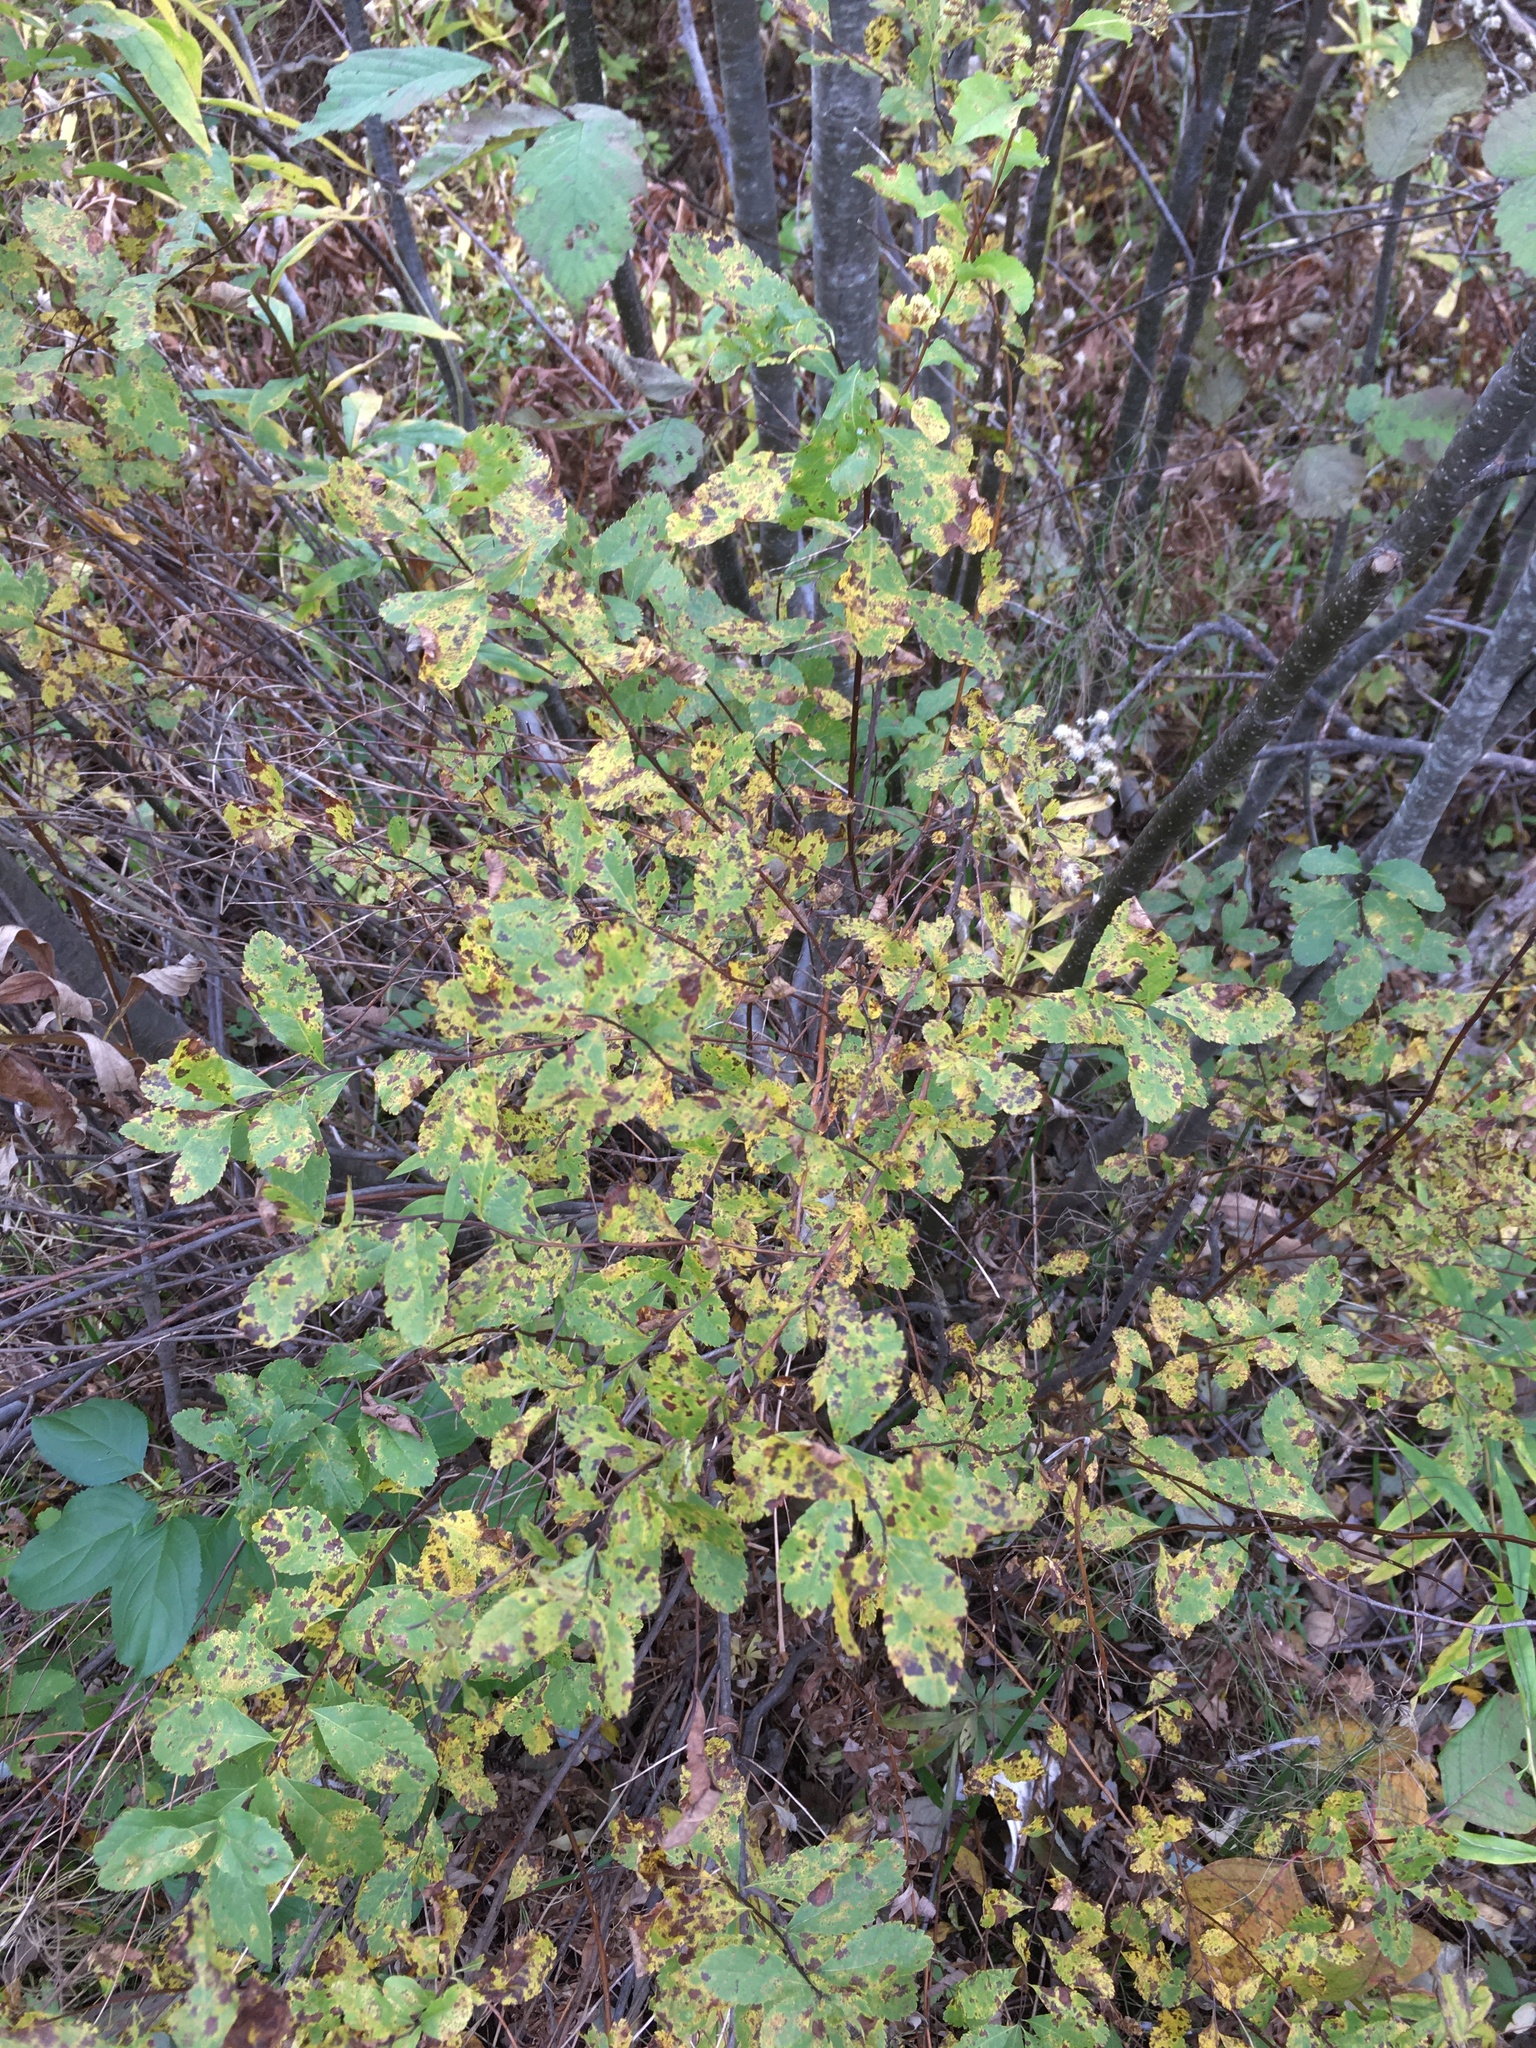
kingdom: Plantae
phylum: Tracheophyta
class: Magnoliopsida
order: Rosales
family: Rosaceae
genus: Spiraea
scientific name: Spiraea alba
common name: Pale bridewort
